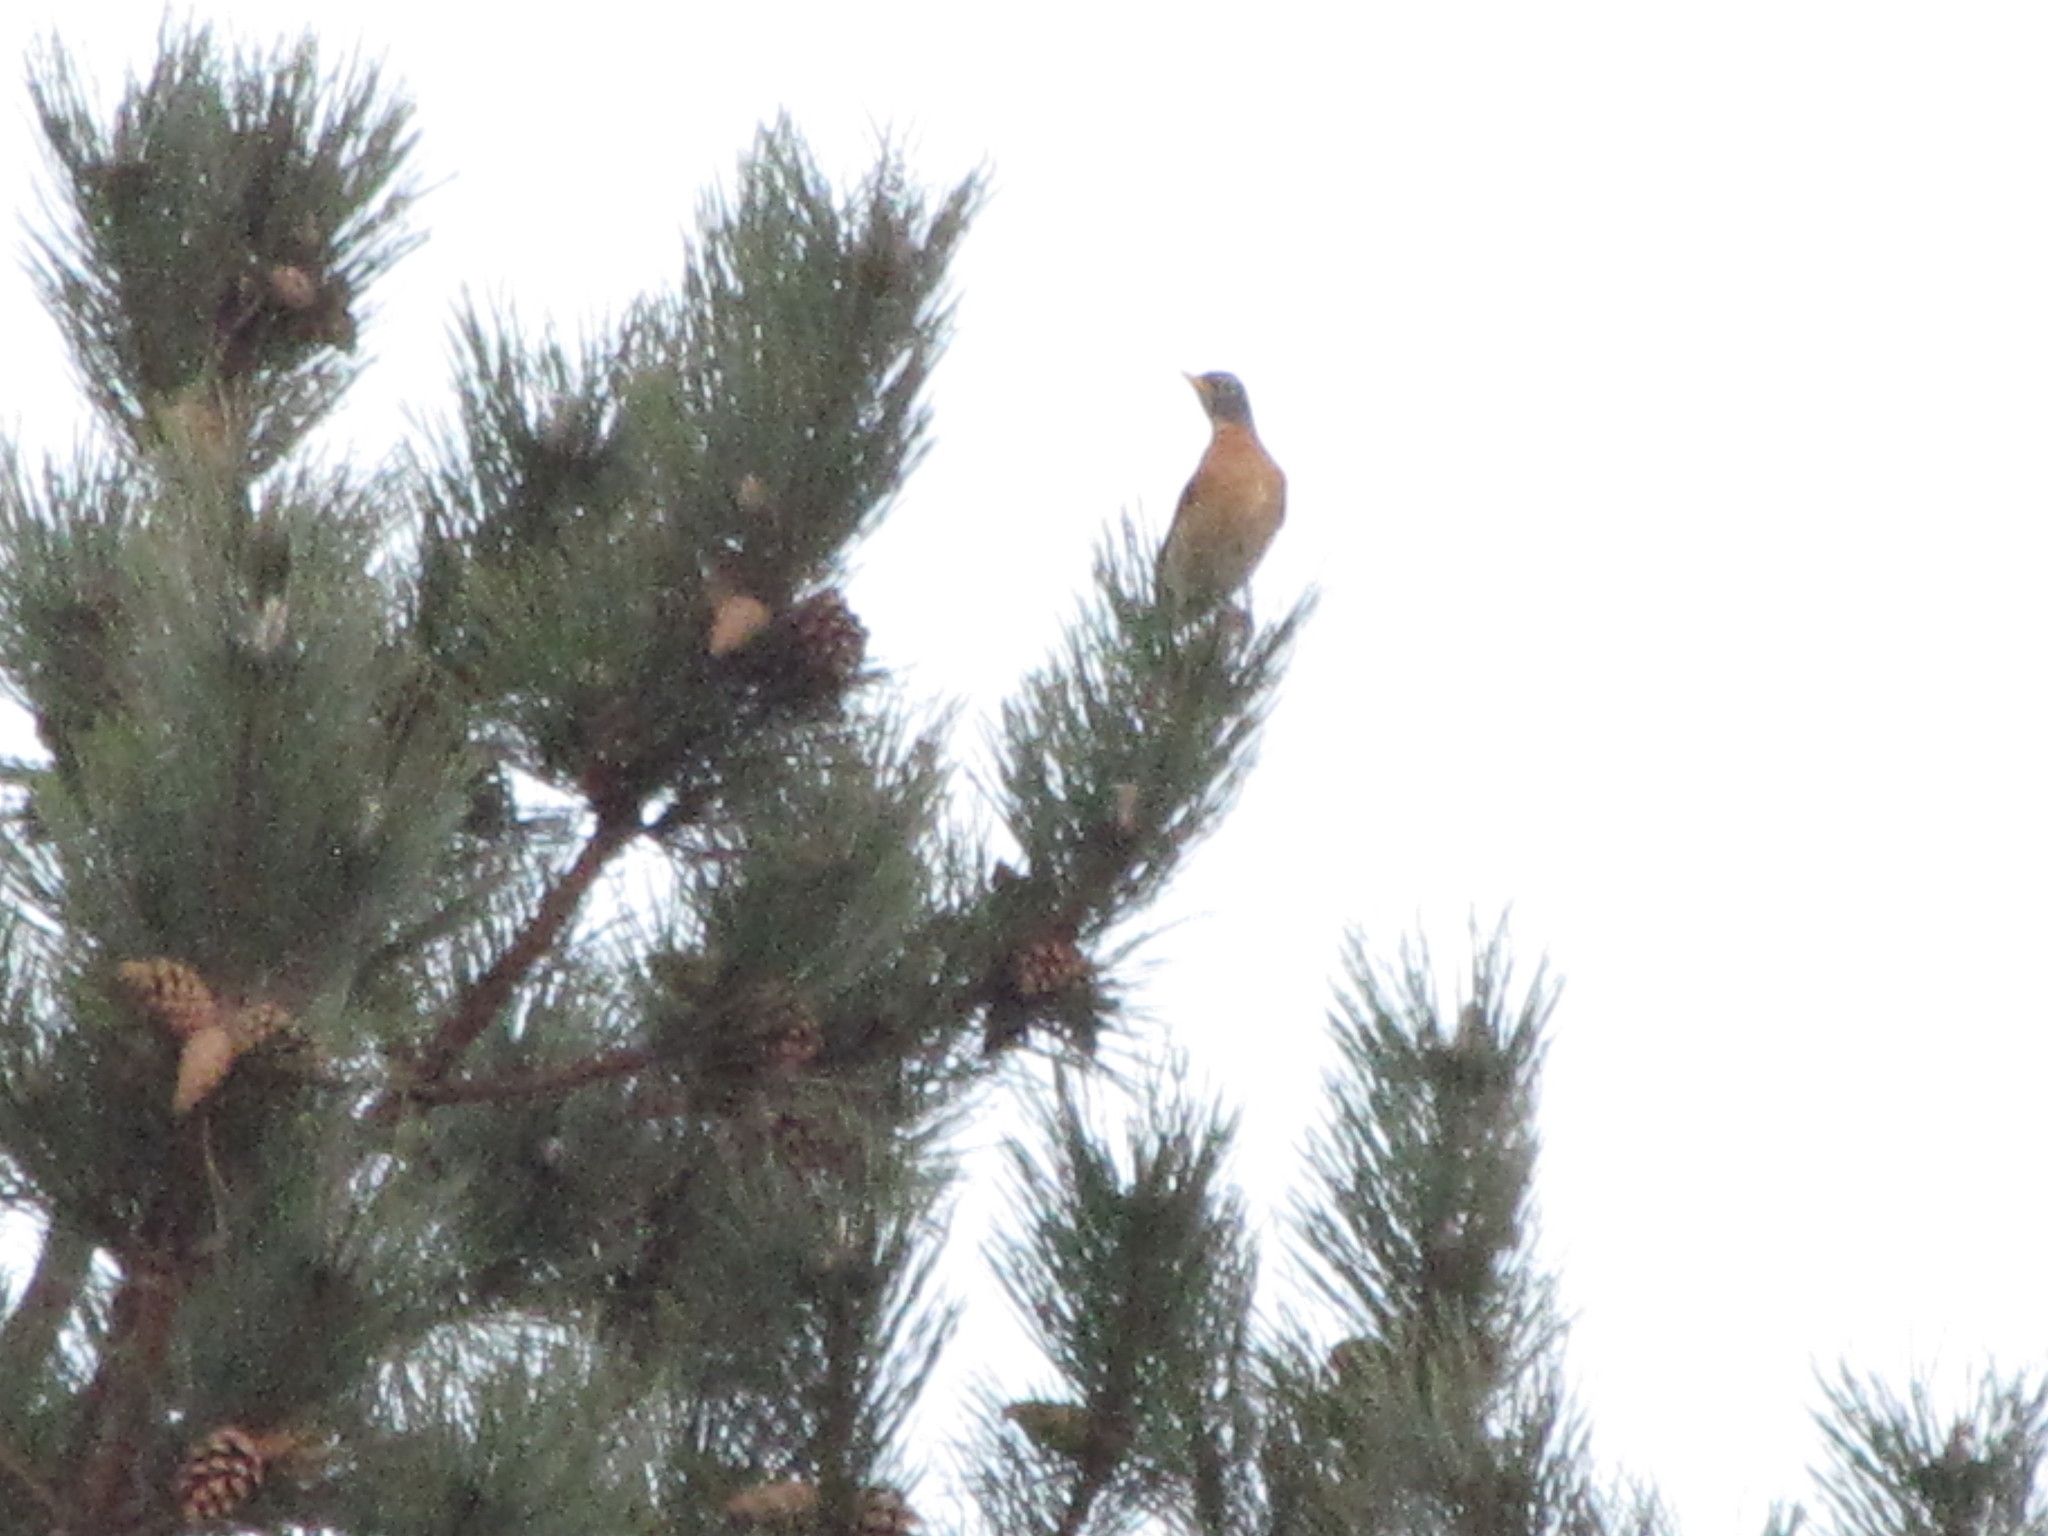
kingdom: Animalia
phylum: Chordata
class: Aves
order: Passeriformes
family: Turdidae
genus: Turdus
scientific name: Turdus migratorius
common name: American robin
